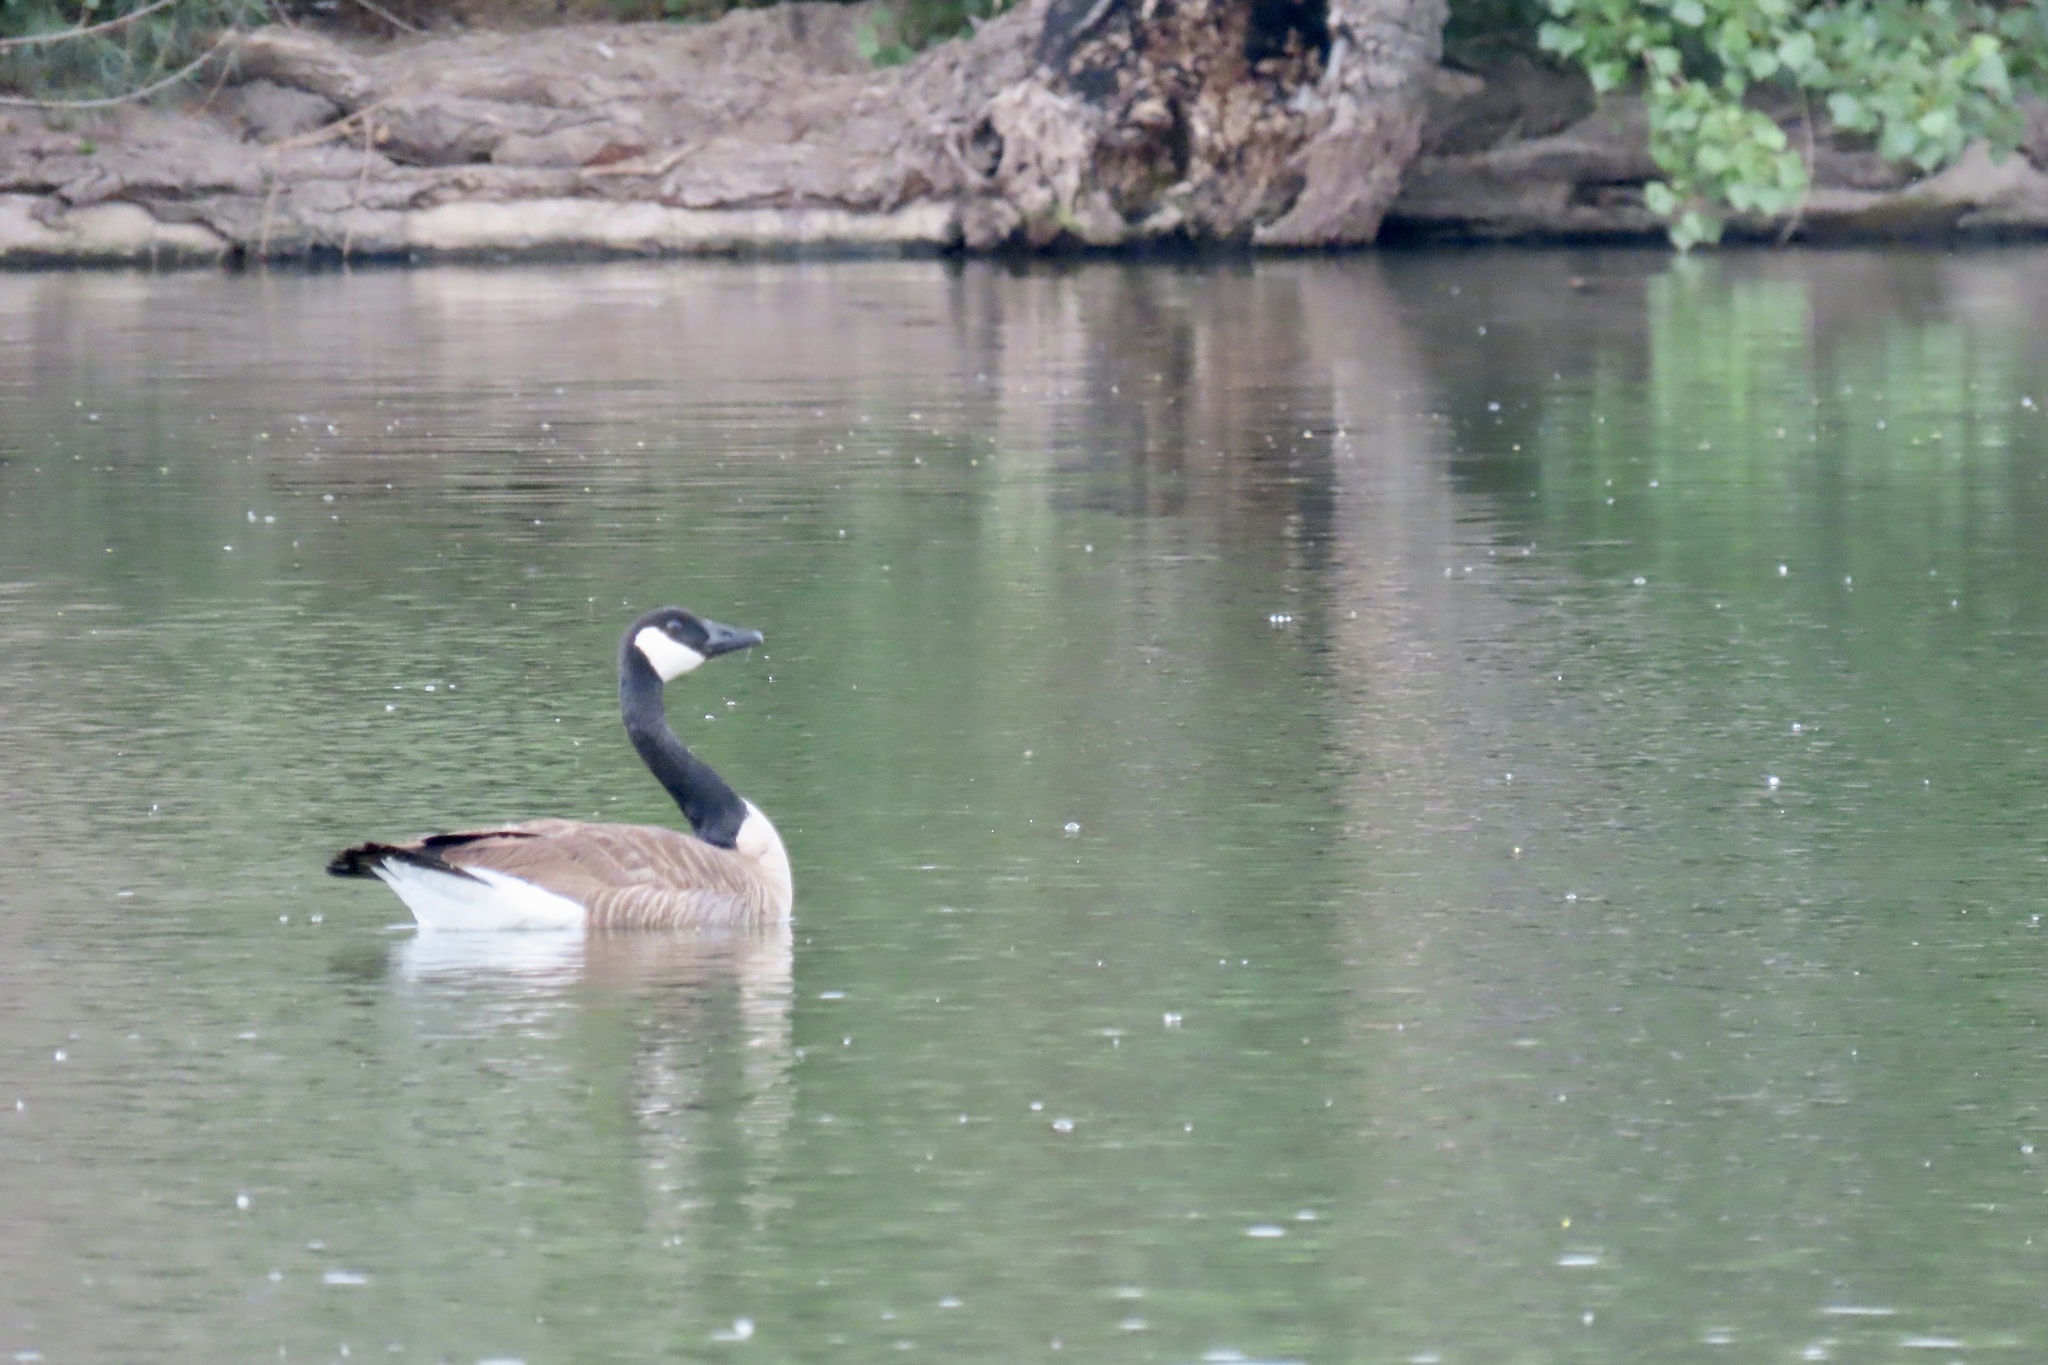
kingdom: Animalia
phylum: Chordata
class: Aves
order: Anseriformes
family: Anatidae
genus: Branta
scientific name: Branta canadensis
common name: Canada goose
